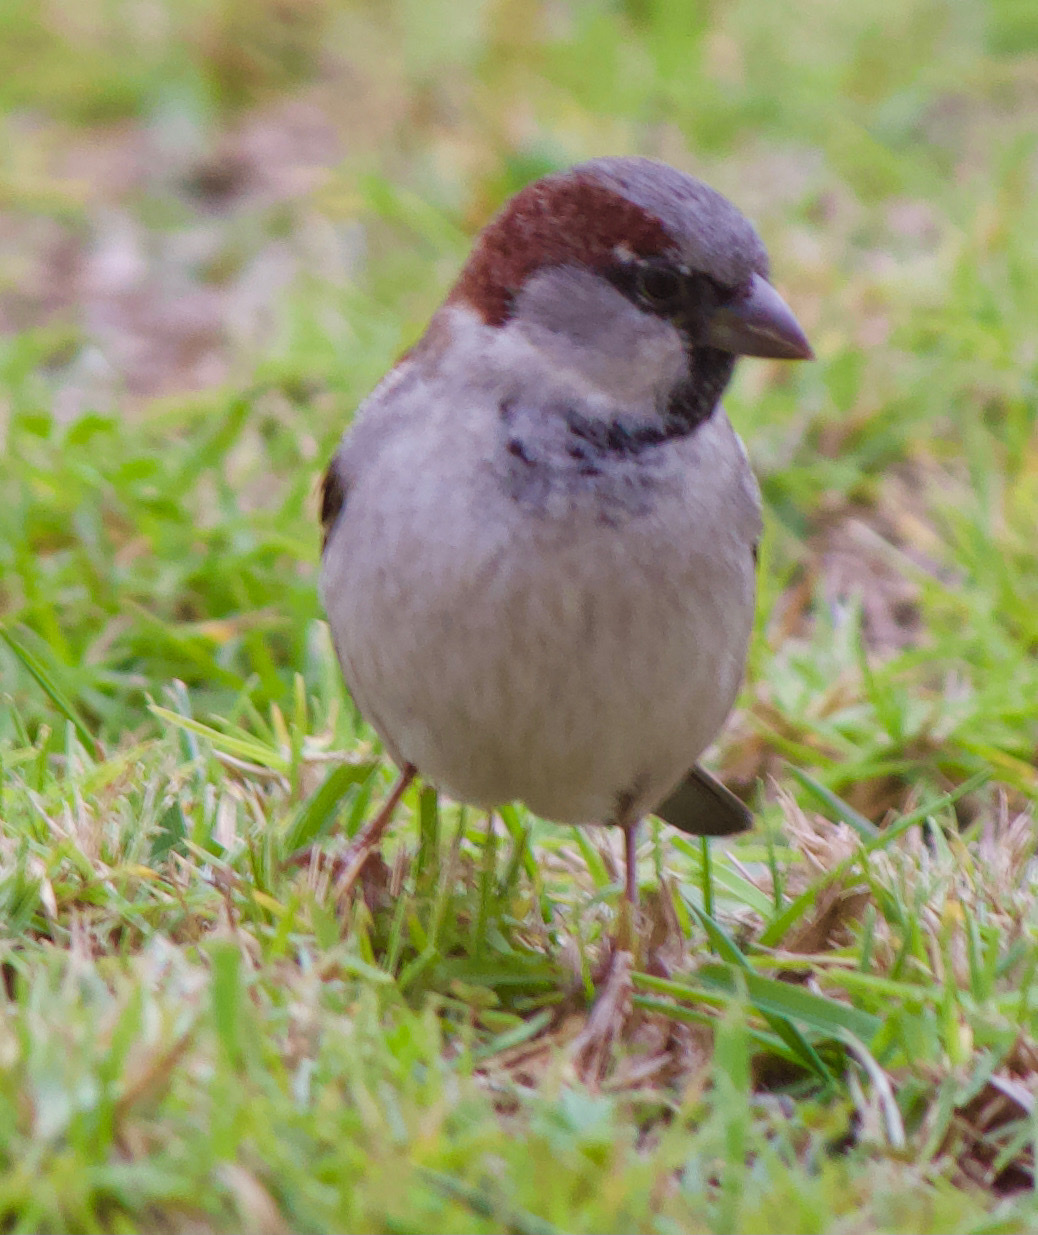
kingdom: Animalia
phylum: Chordata
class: Aves
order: Passeriformes
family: Passeridae
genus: Passer
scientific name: Passer domesticus
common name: House sparrow
